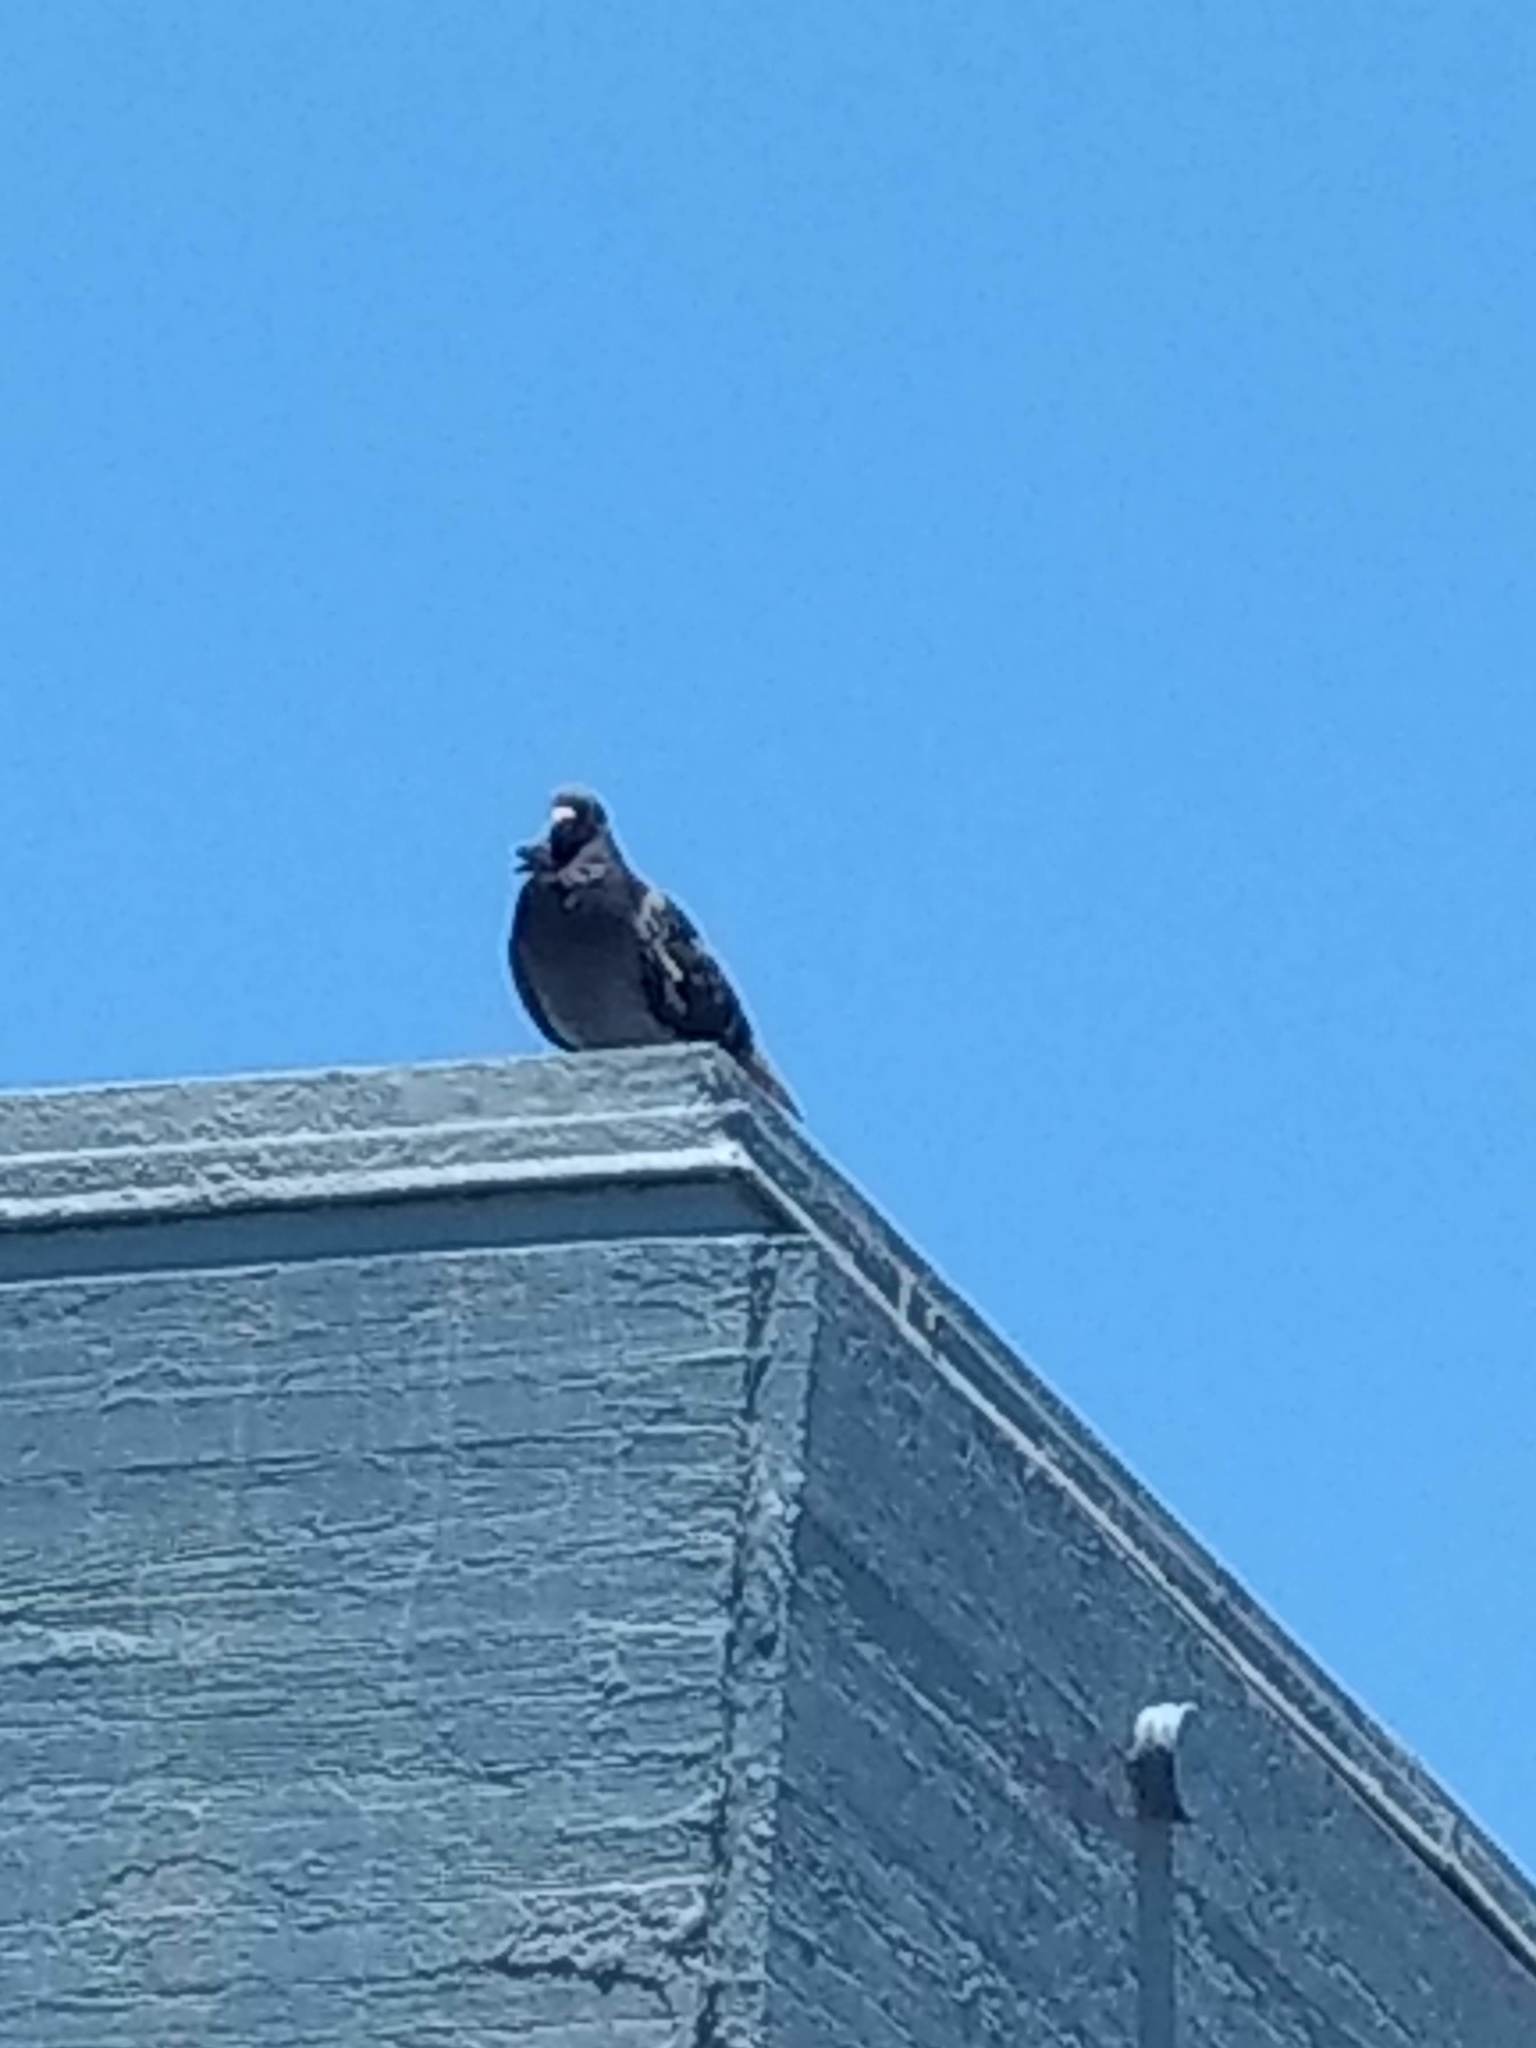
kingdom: Animalia
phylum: Chordata
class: Aves
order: Columbiformes
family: Columbidae
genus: Columba
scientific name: Columba livia
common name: Rock pigeon
